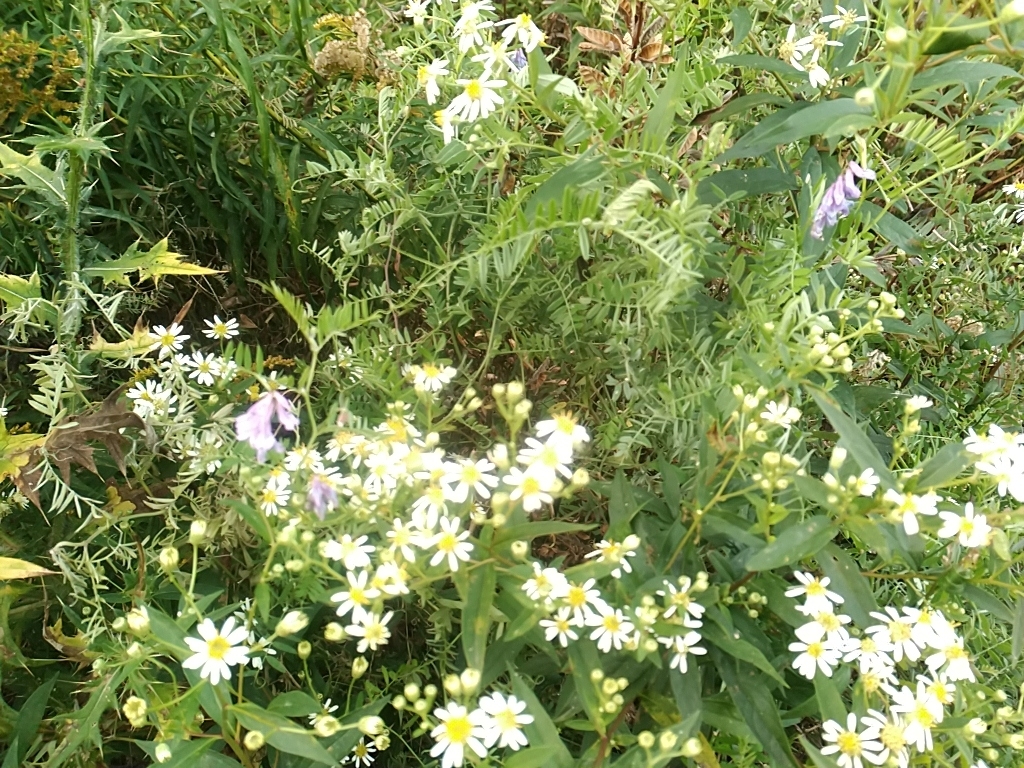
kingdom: Plantae
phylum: Tracheophyta
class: Magnoliopsida
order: Fabales
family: Fabaceae
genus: Vicia
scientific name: Vicia cracca
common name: Bird vetch
